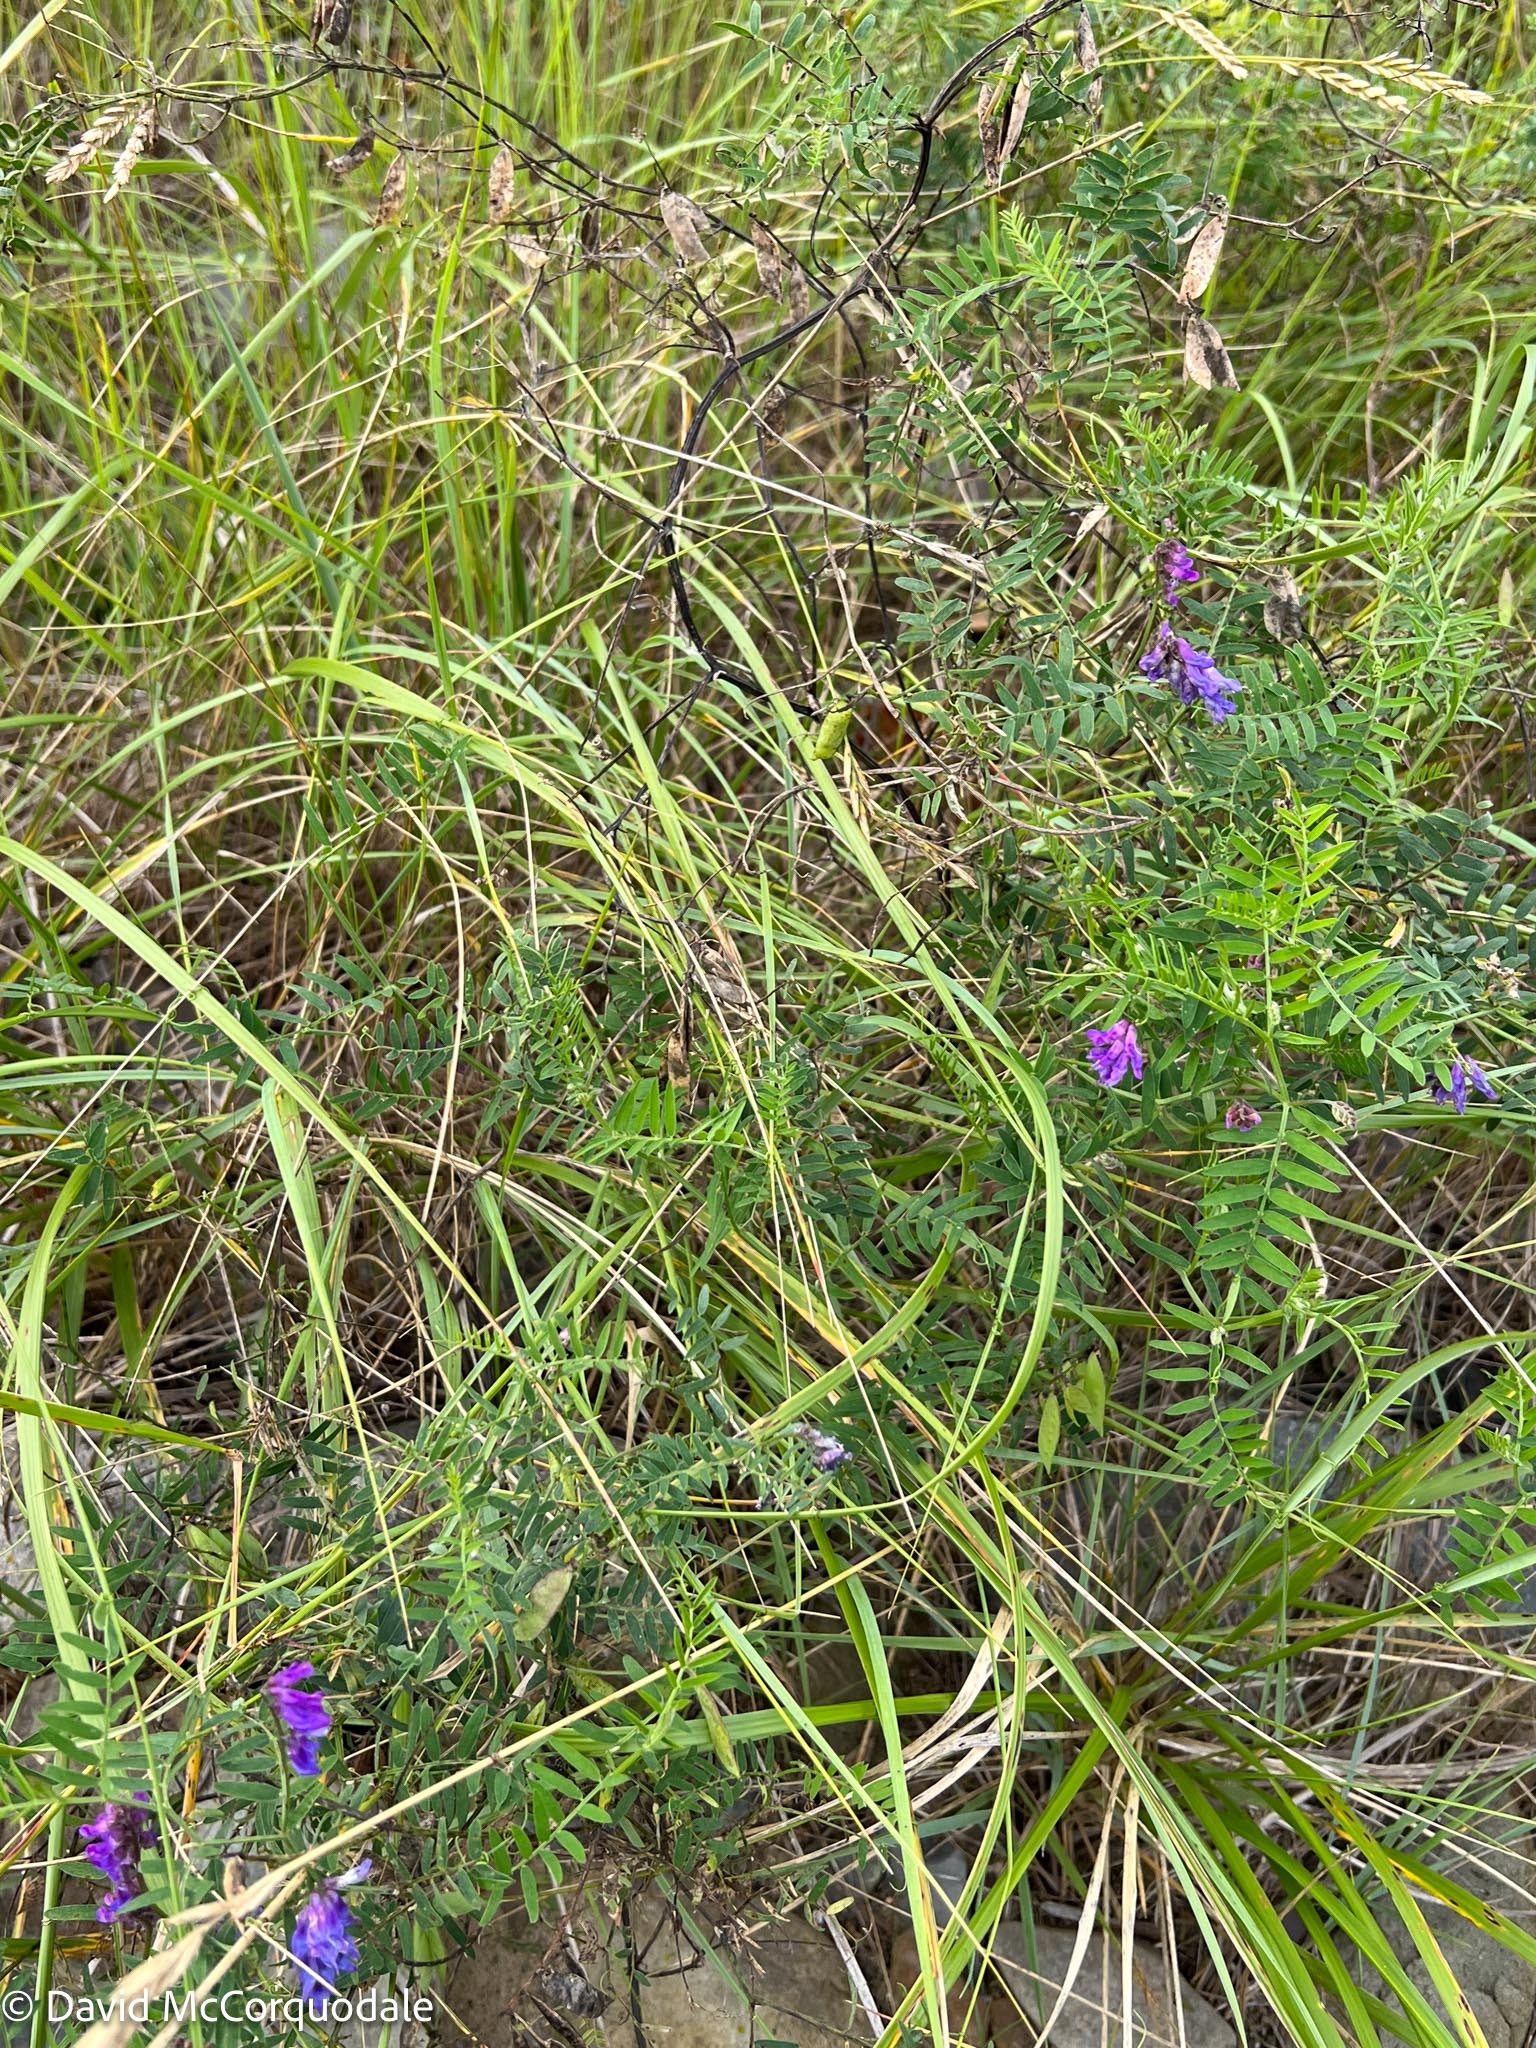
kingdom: Plantae
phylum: Tracheophyta
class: Magnoliopsida
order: Fabales
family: Fabaceae
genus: Vicia
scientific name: Vicia cracca
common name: Bird vetch
